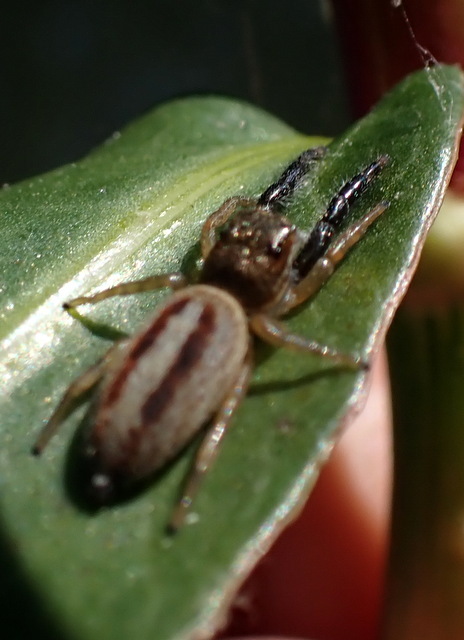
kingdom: Animalia
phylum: Arthropoda
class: Arachnida
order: Araneae
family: Salticidae
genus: Marpissa
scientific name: Marpissa bina
